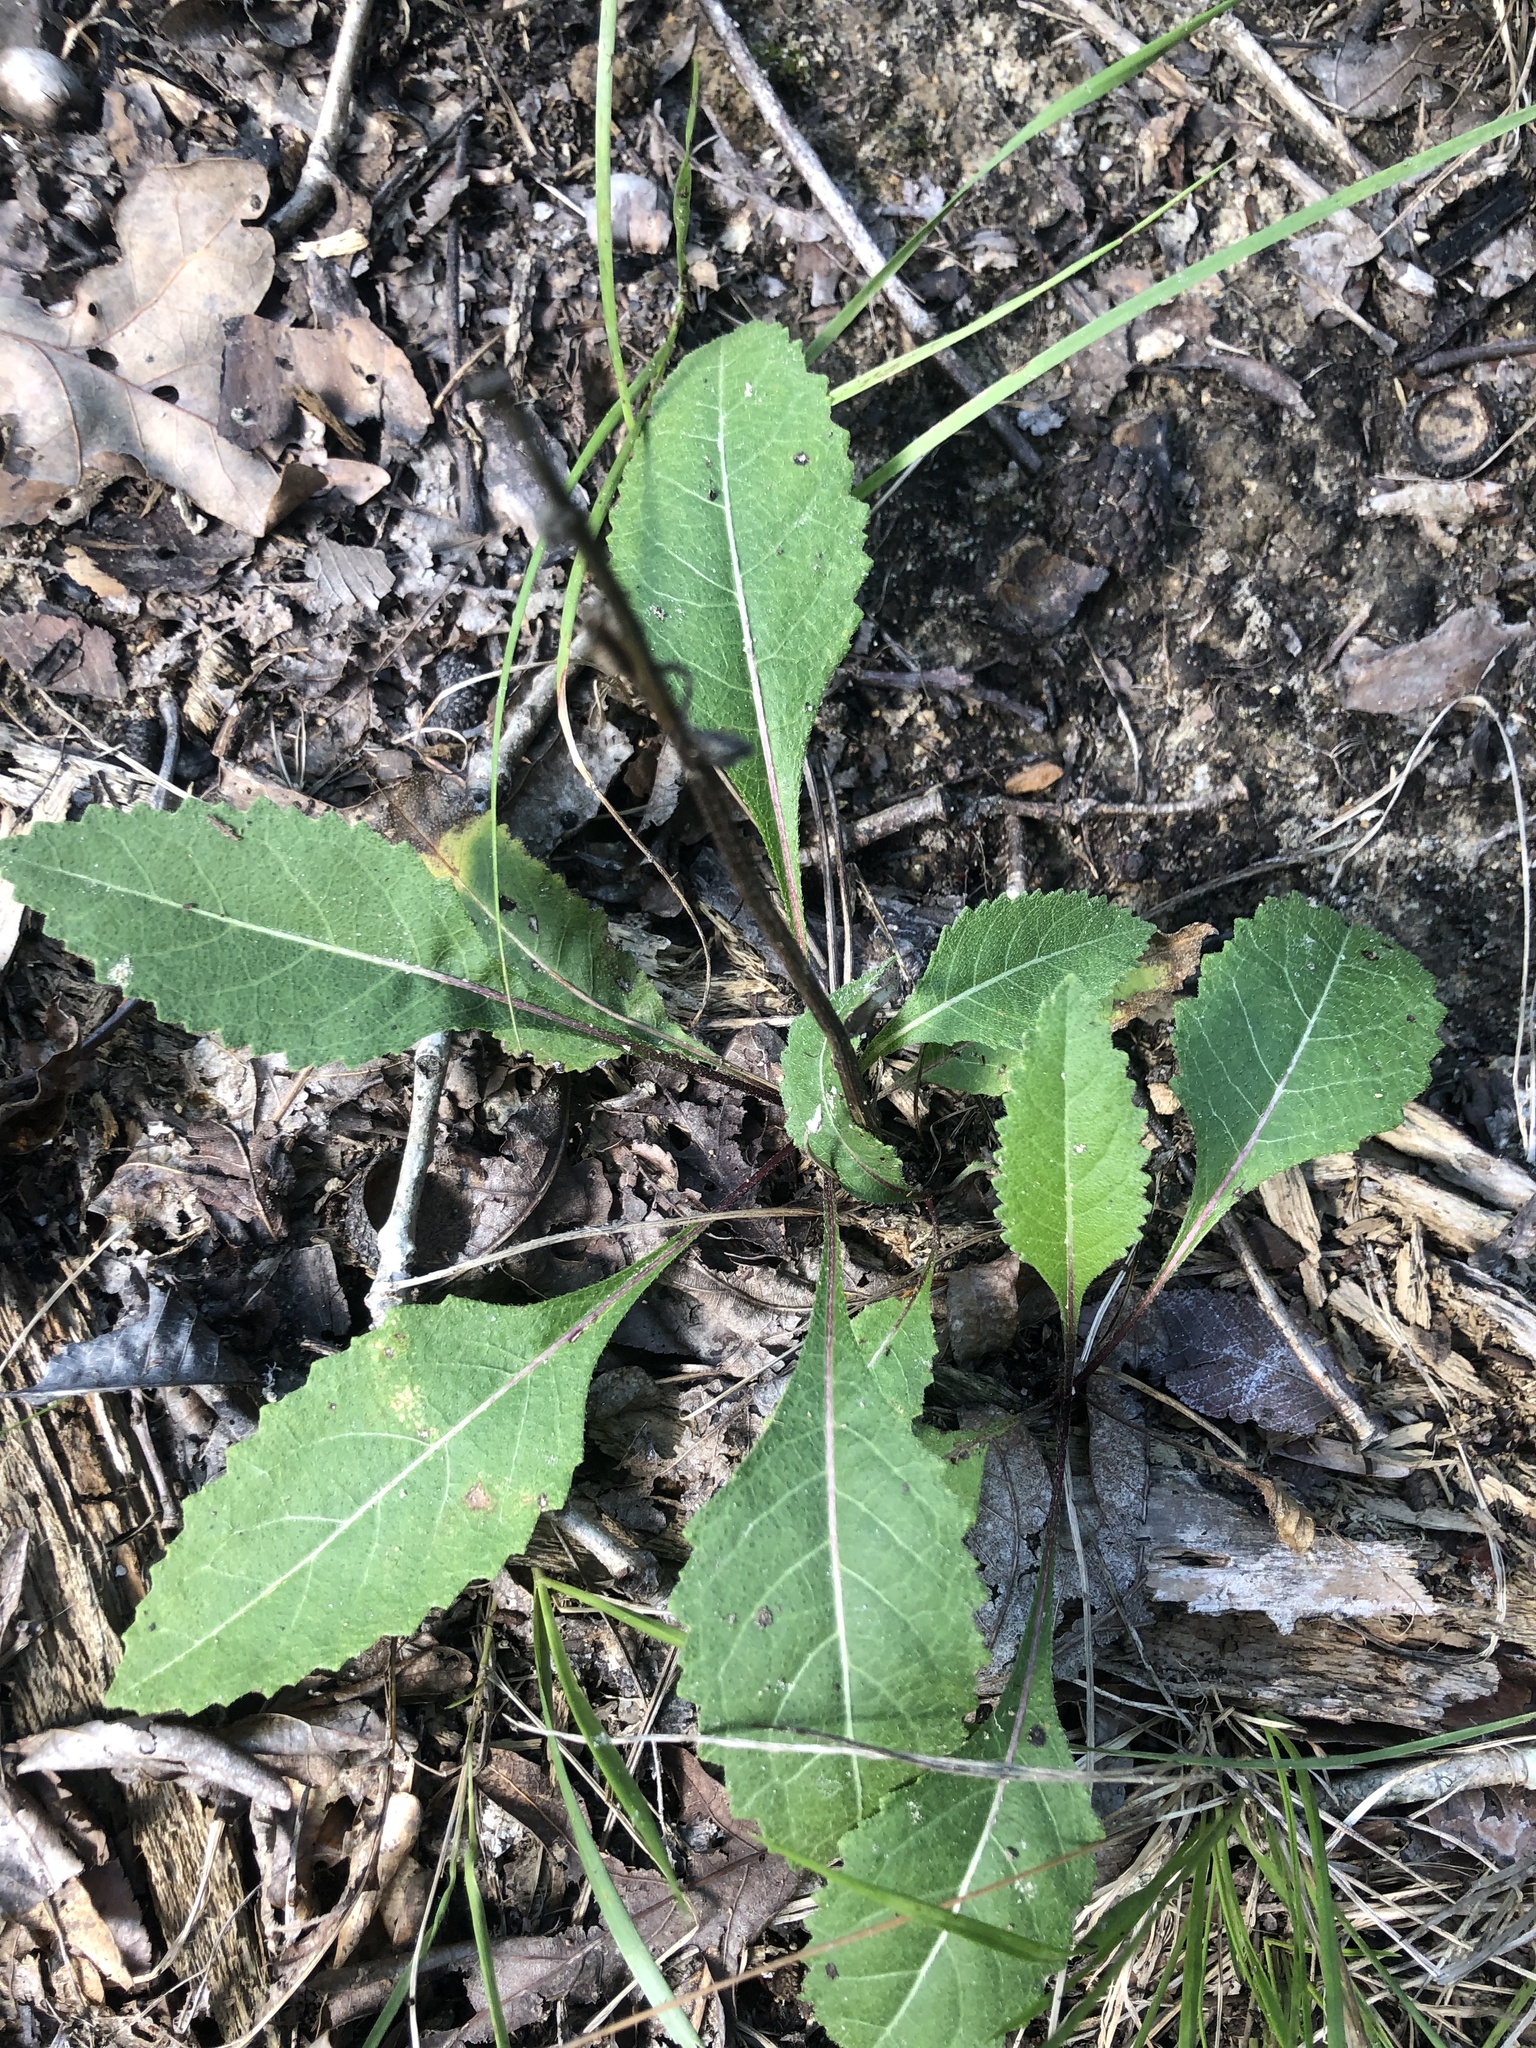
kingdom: Plantae
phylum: Tracheophyta
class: Magnoliopsida
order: Asterales
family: Asteraceae
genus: Parthenium
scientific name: Parthenium integrifolium
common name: American feverfew
